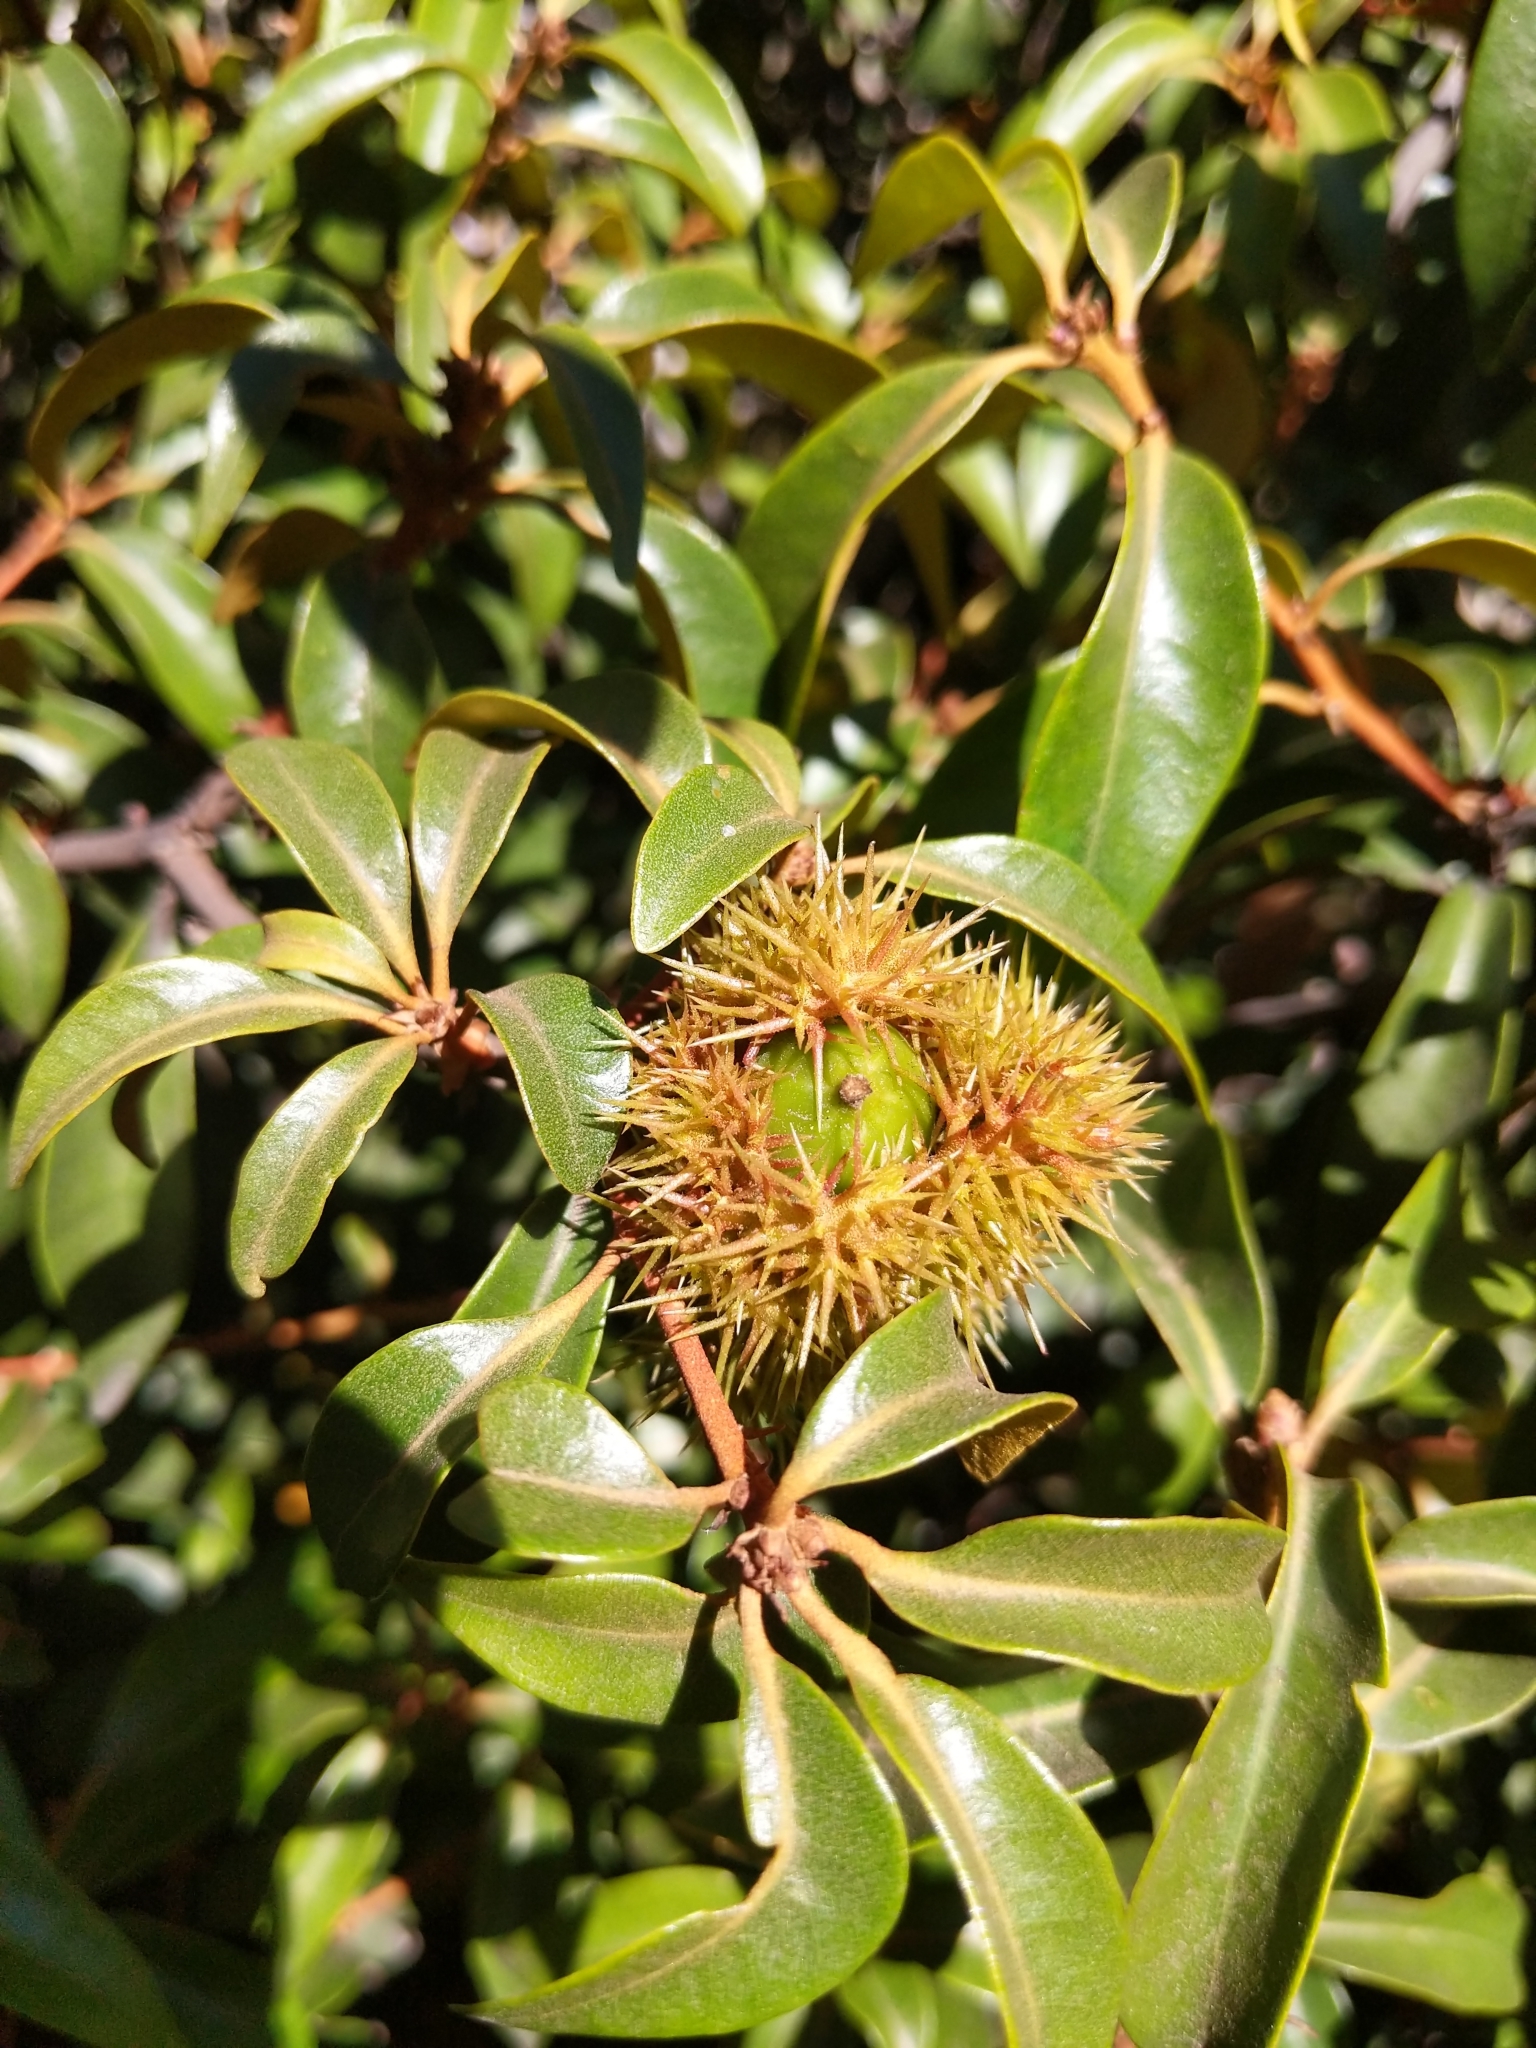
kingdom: Plantae
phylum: Tracheophyta
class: Magnoliopsida
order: Fagales
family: Fagaceae
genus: Chrysolepis
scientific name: Chrysolepis chrysophylla
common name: Giant chinquapin
